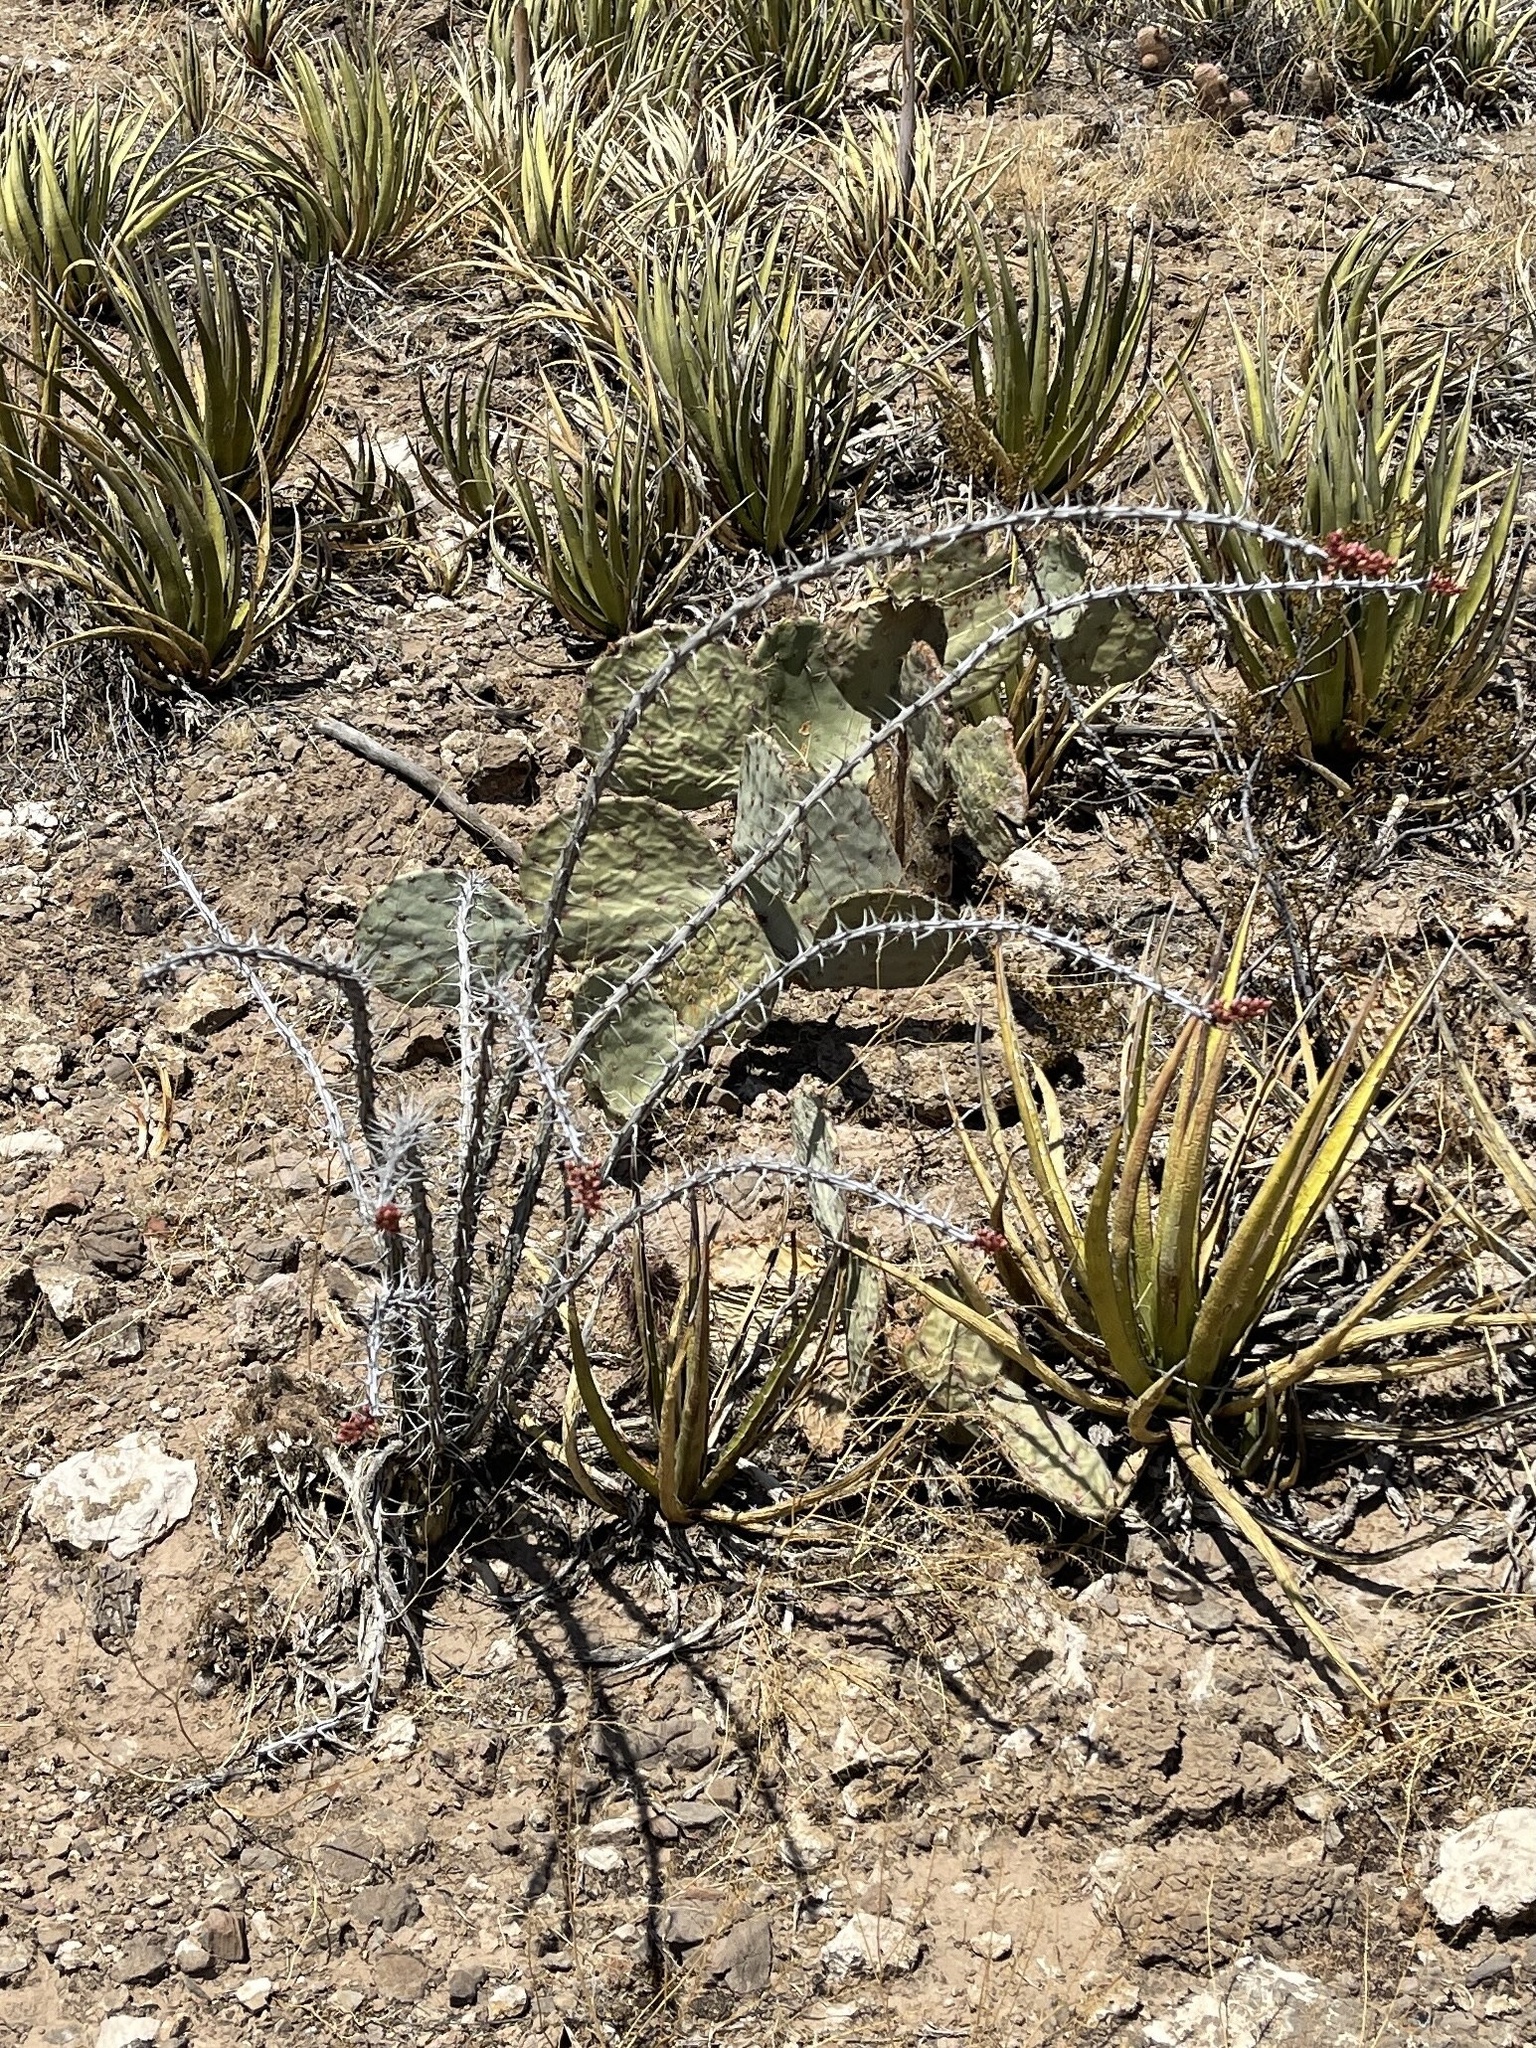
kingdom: Plantae
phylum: Tracheophyta
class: Magnoliopsida
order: Ericales
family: Fouquieriaceae
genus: Fouquieria
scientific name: Fouquieria splendens
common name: Vine-cactus
